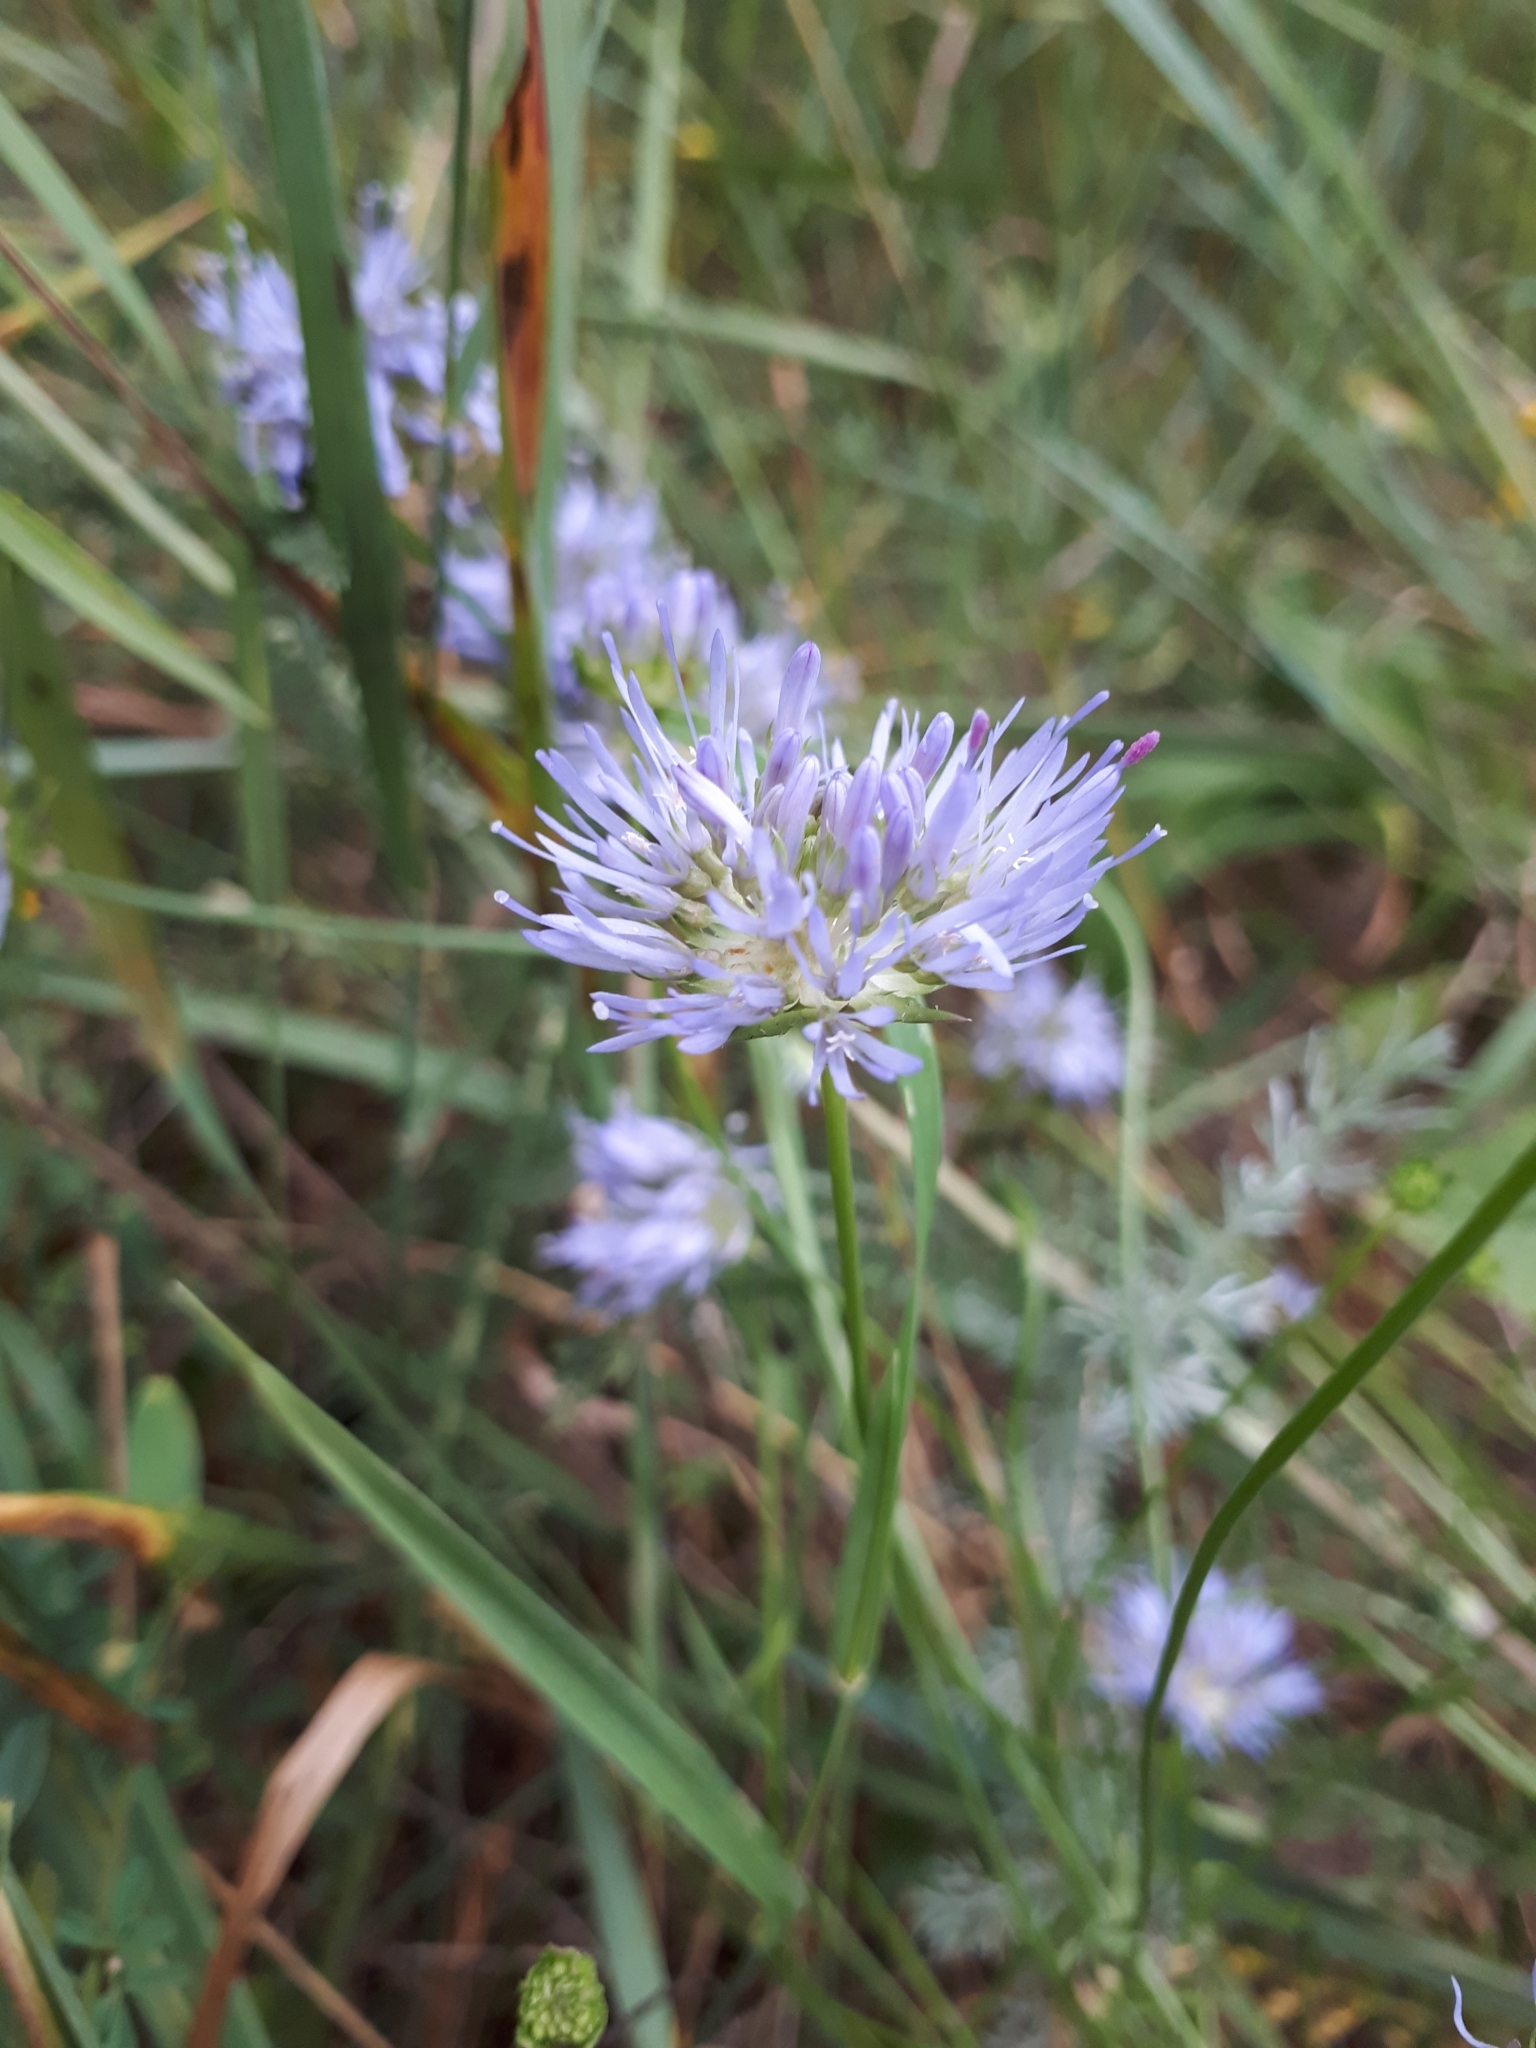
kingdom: Plantae
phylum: Tracheophyta
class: Magnoliopsida
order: Asterales
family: Campanulaceae
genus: Jasione
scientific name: Jasione montana
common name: Sheep's-bit
